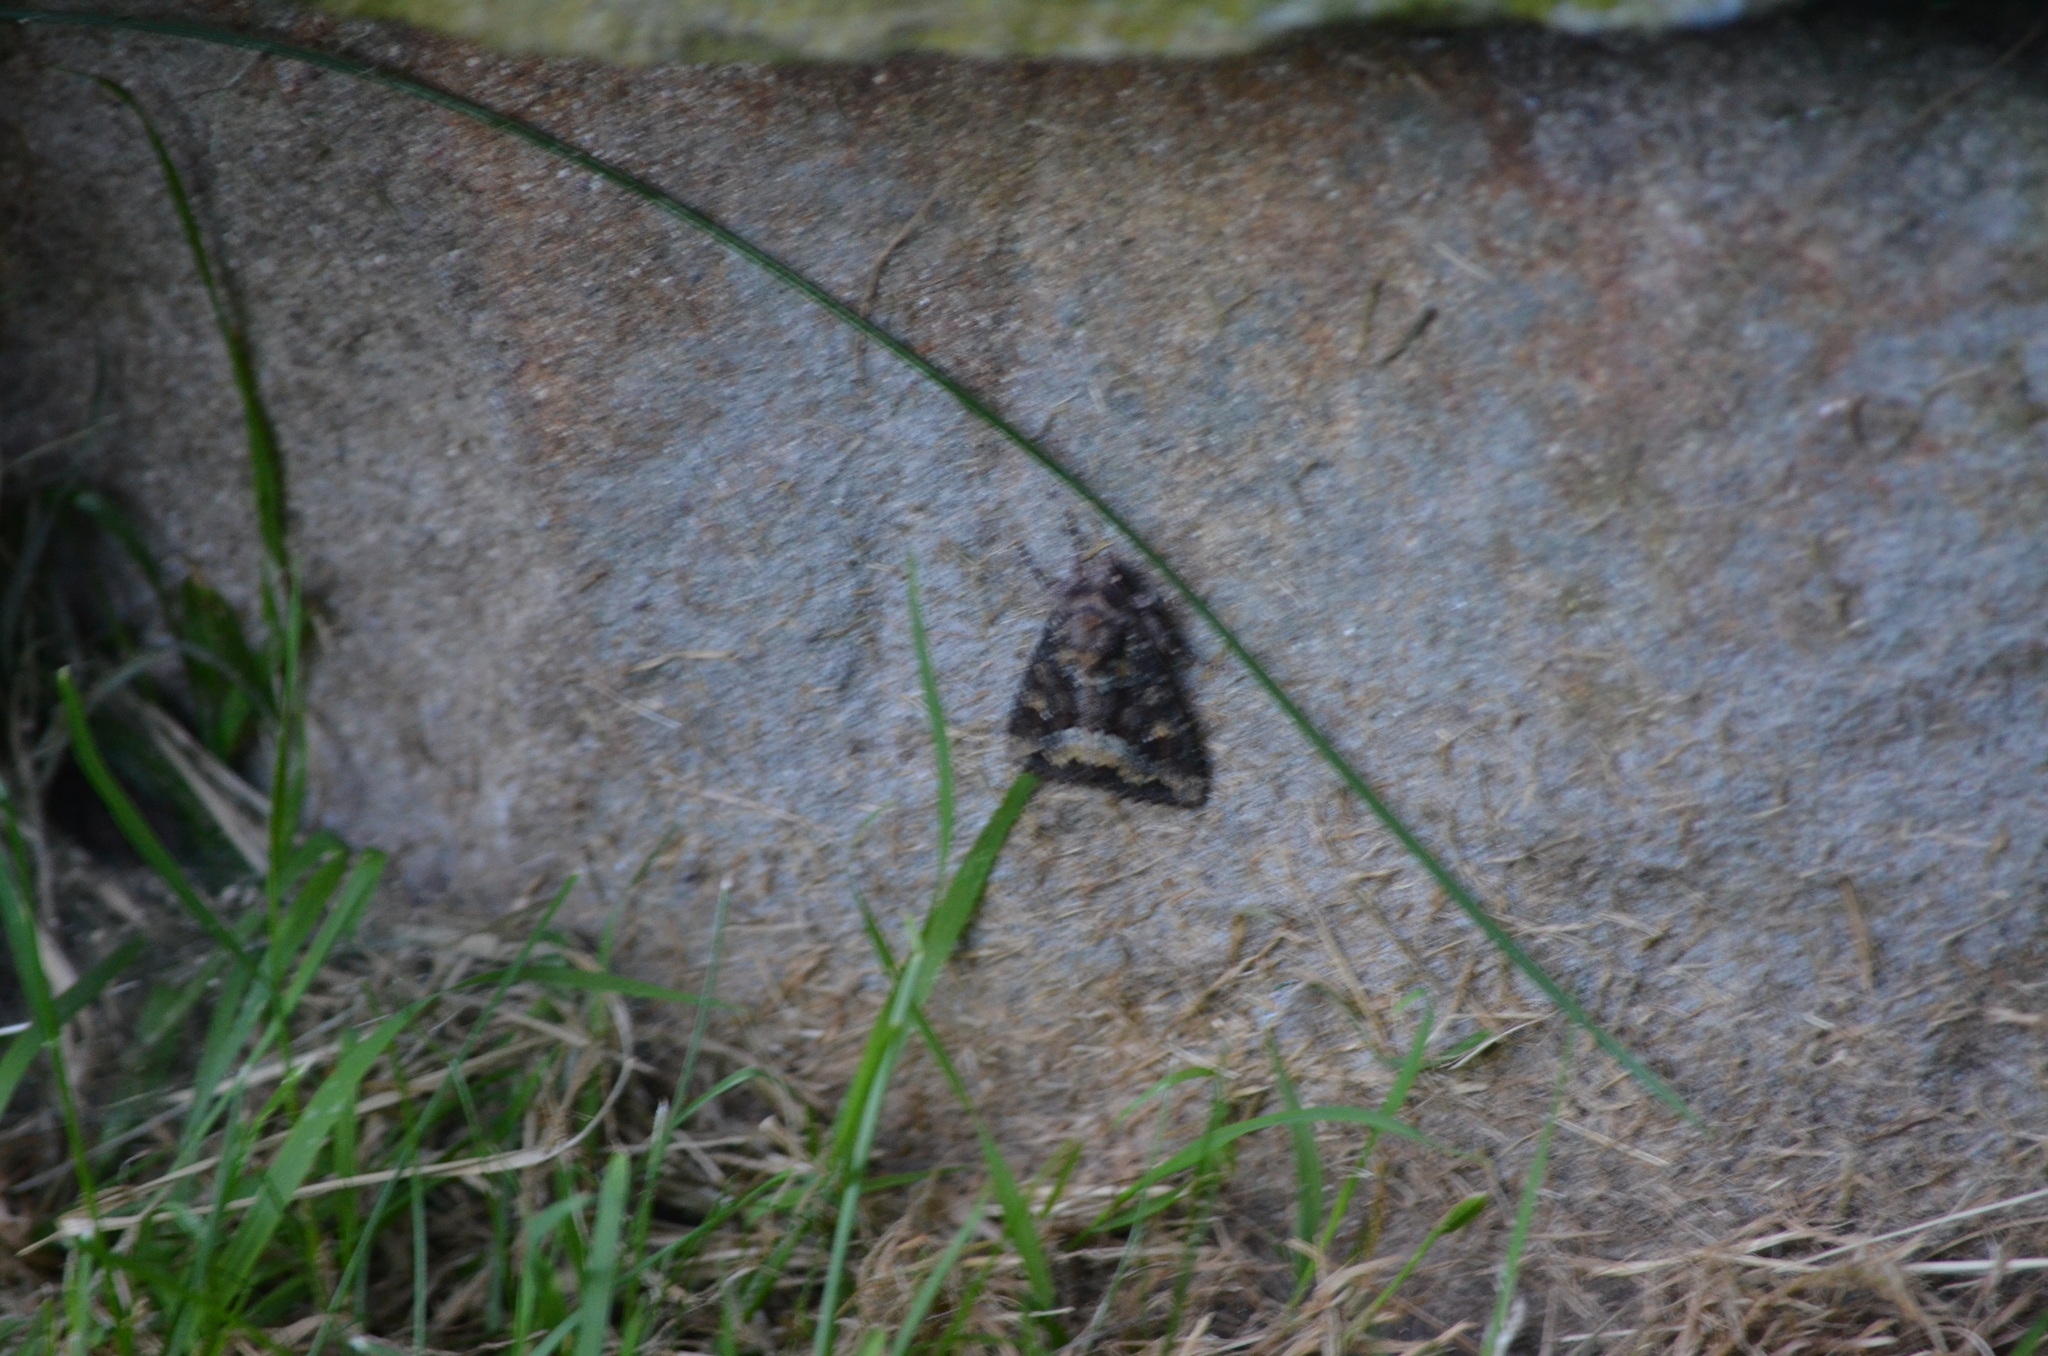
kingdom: Animalia
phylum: Arthropoda
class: Insecta
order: Lepidoptera
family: Noctuidae
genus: Apamea
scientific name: Apamea amputatrix
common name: Yellow-headed cutworm moth
